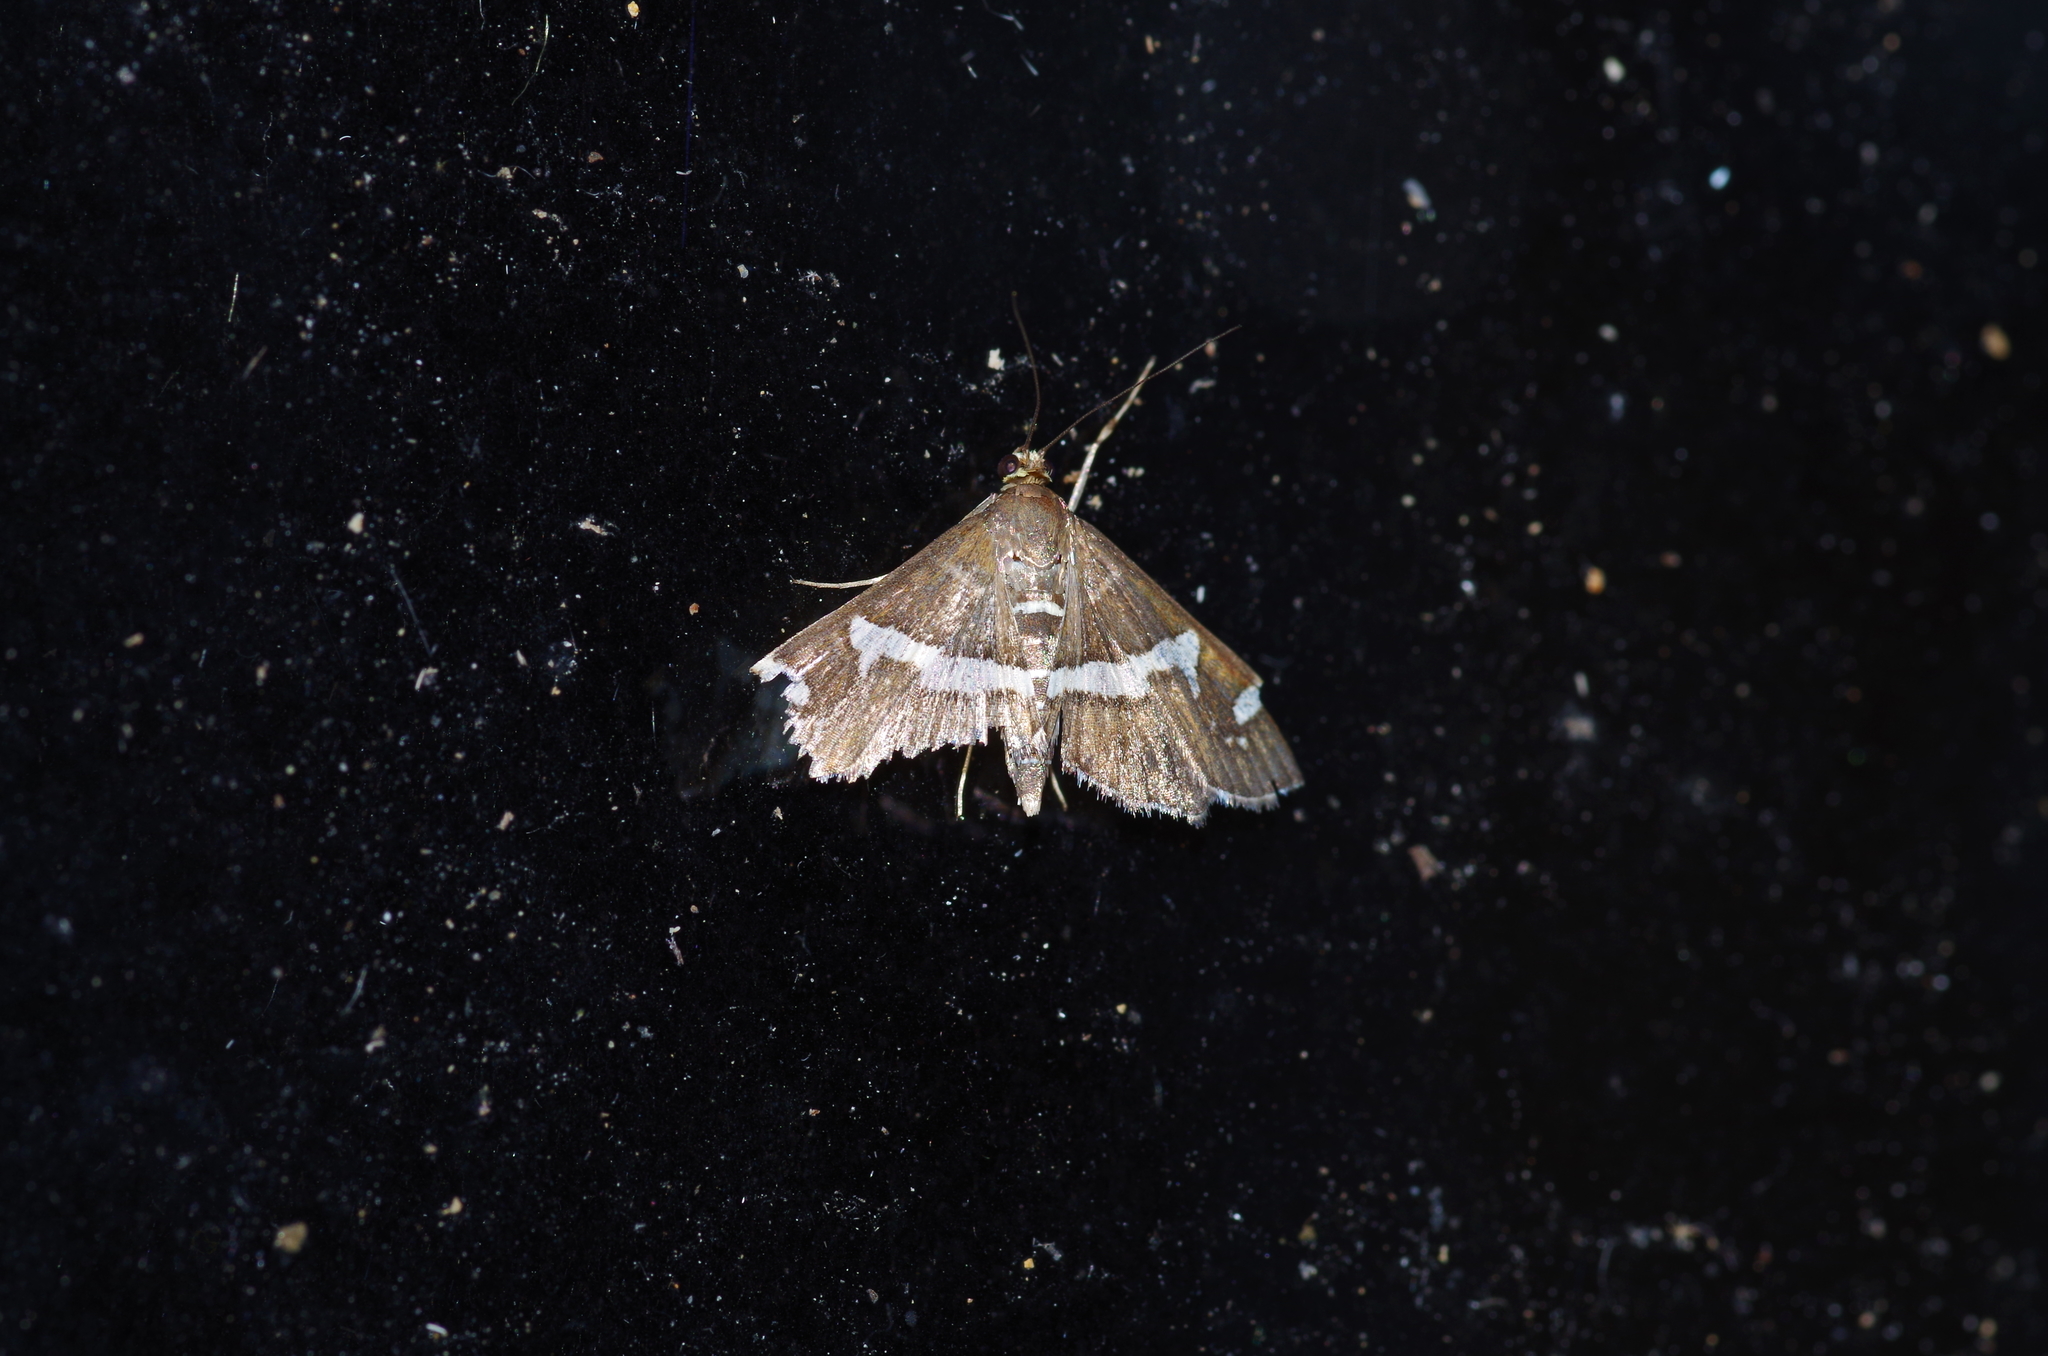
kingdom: Animalia
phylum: Arthropoda
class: Insecta
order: Lepidoptera
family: Crambidae
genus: Spoladea
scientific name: Spoladea recurvalis
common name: Beet webworm moth
